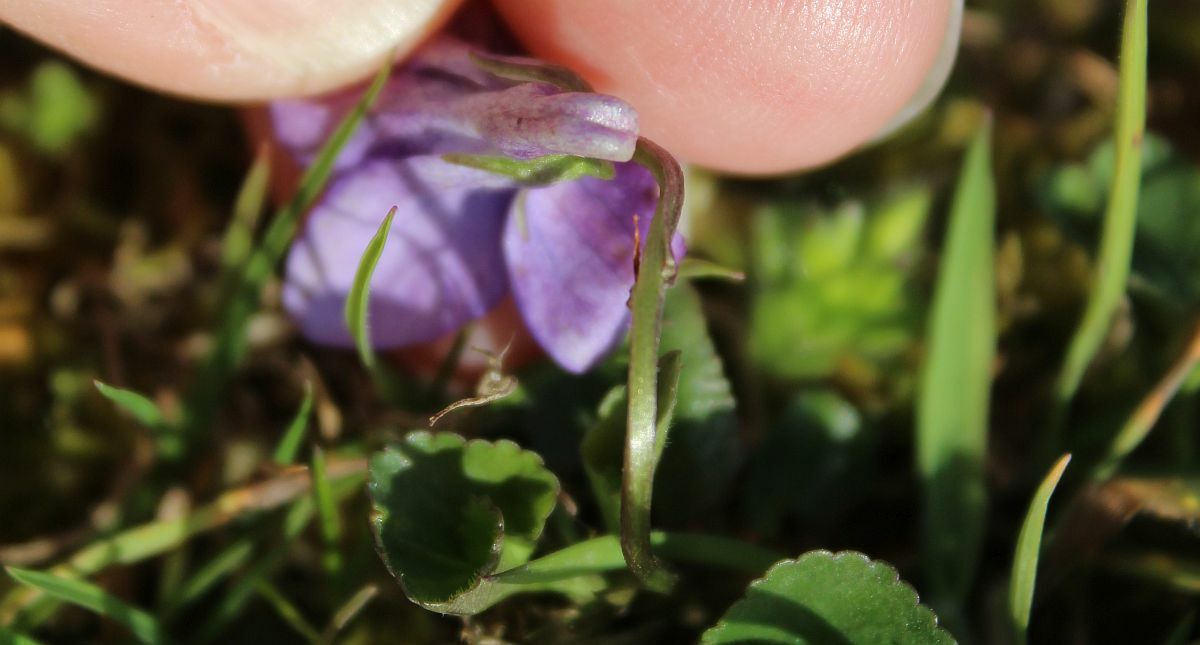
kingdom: Plantae
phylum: Tracheophyta
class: Magnoliopsida
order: Malpighiales
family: Violaceae
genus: Viola
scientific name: Viola riviniana
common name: Common dog-violet
